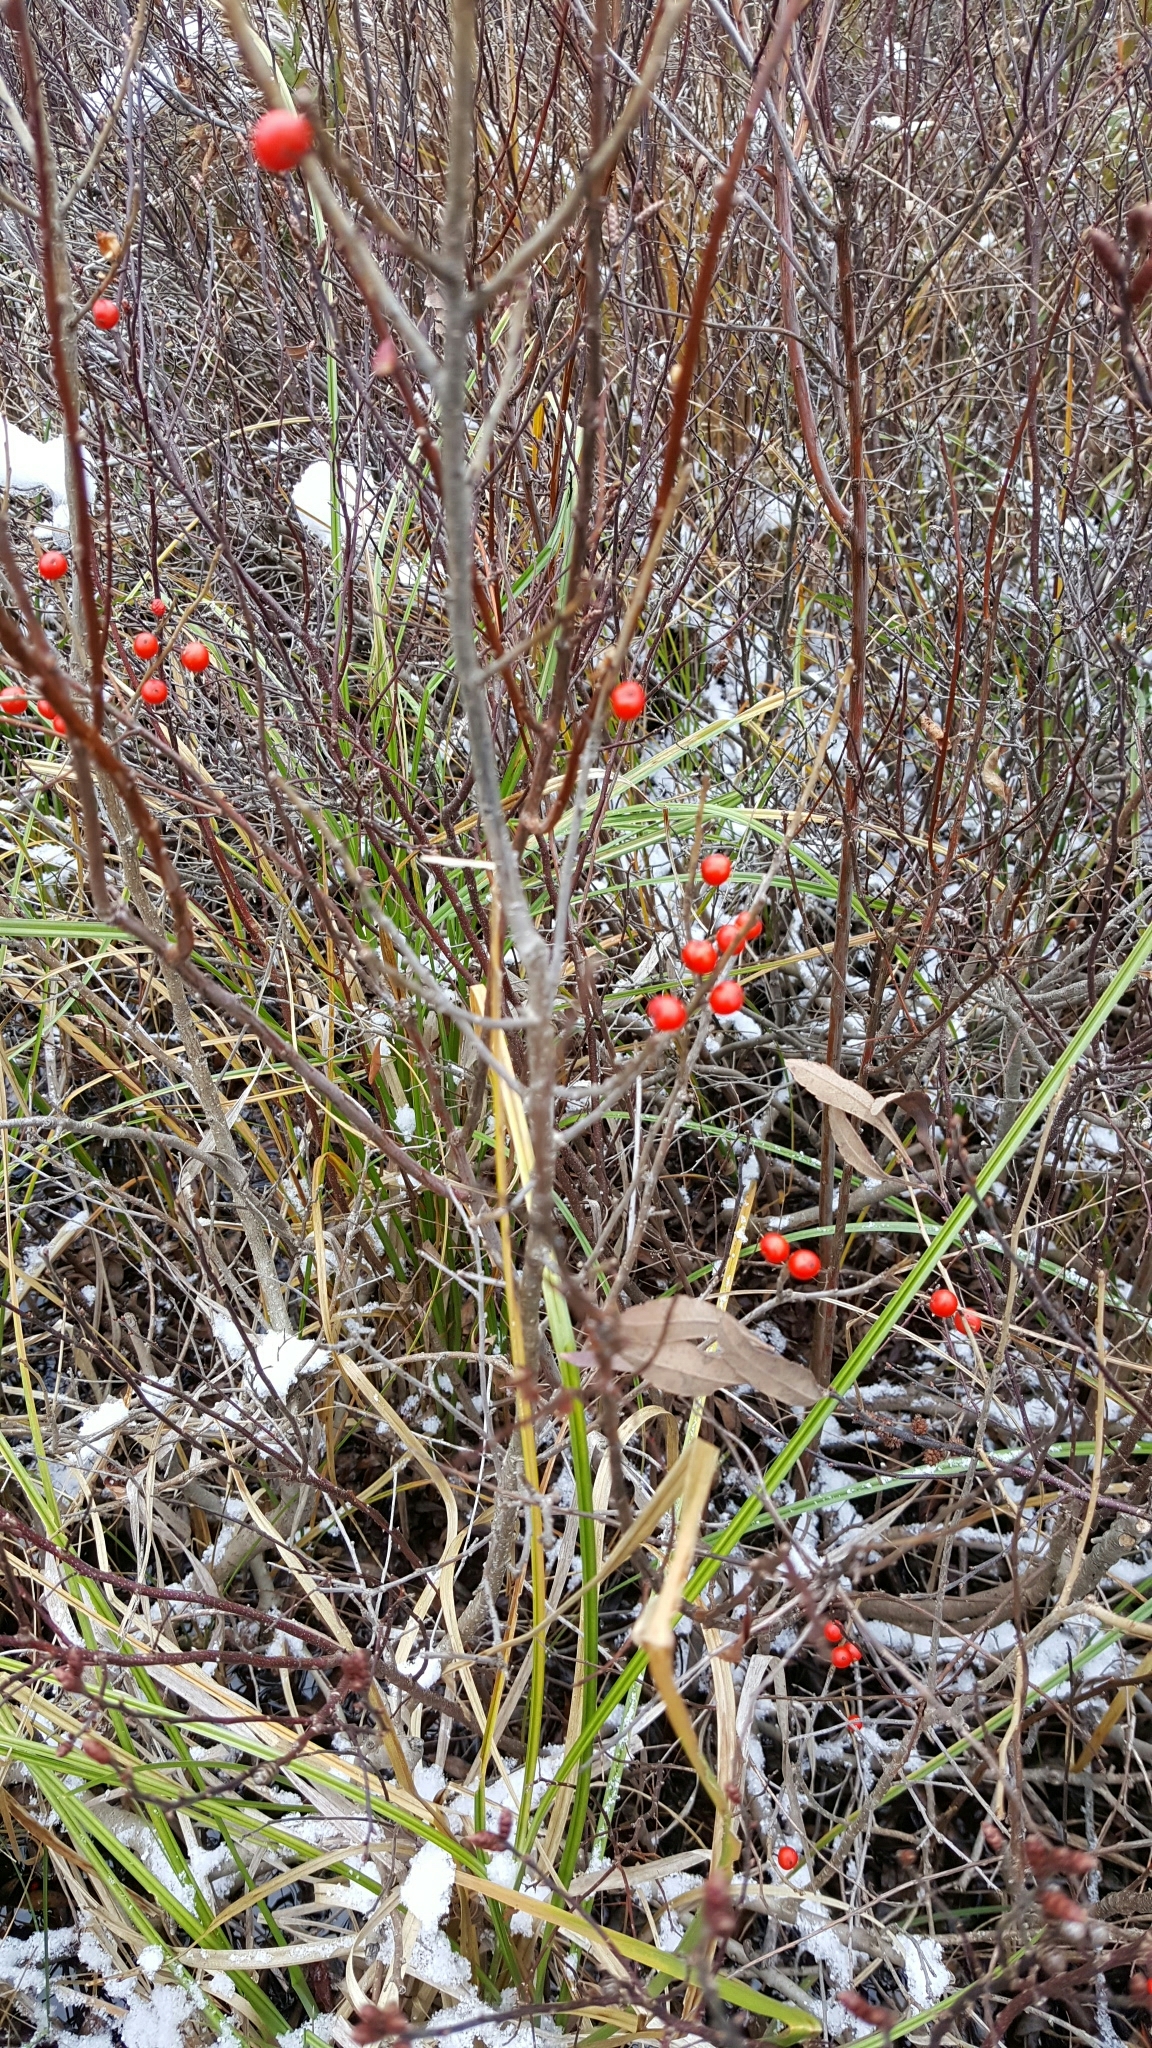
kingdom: Plantae
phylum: Tracheophyta
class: Magnoliopsida
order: Aquifoliales
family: Aquifoliaceae
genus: Ilex
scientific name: Ilex verticillata
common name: Virginia winterberry
